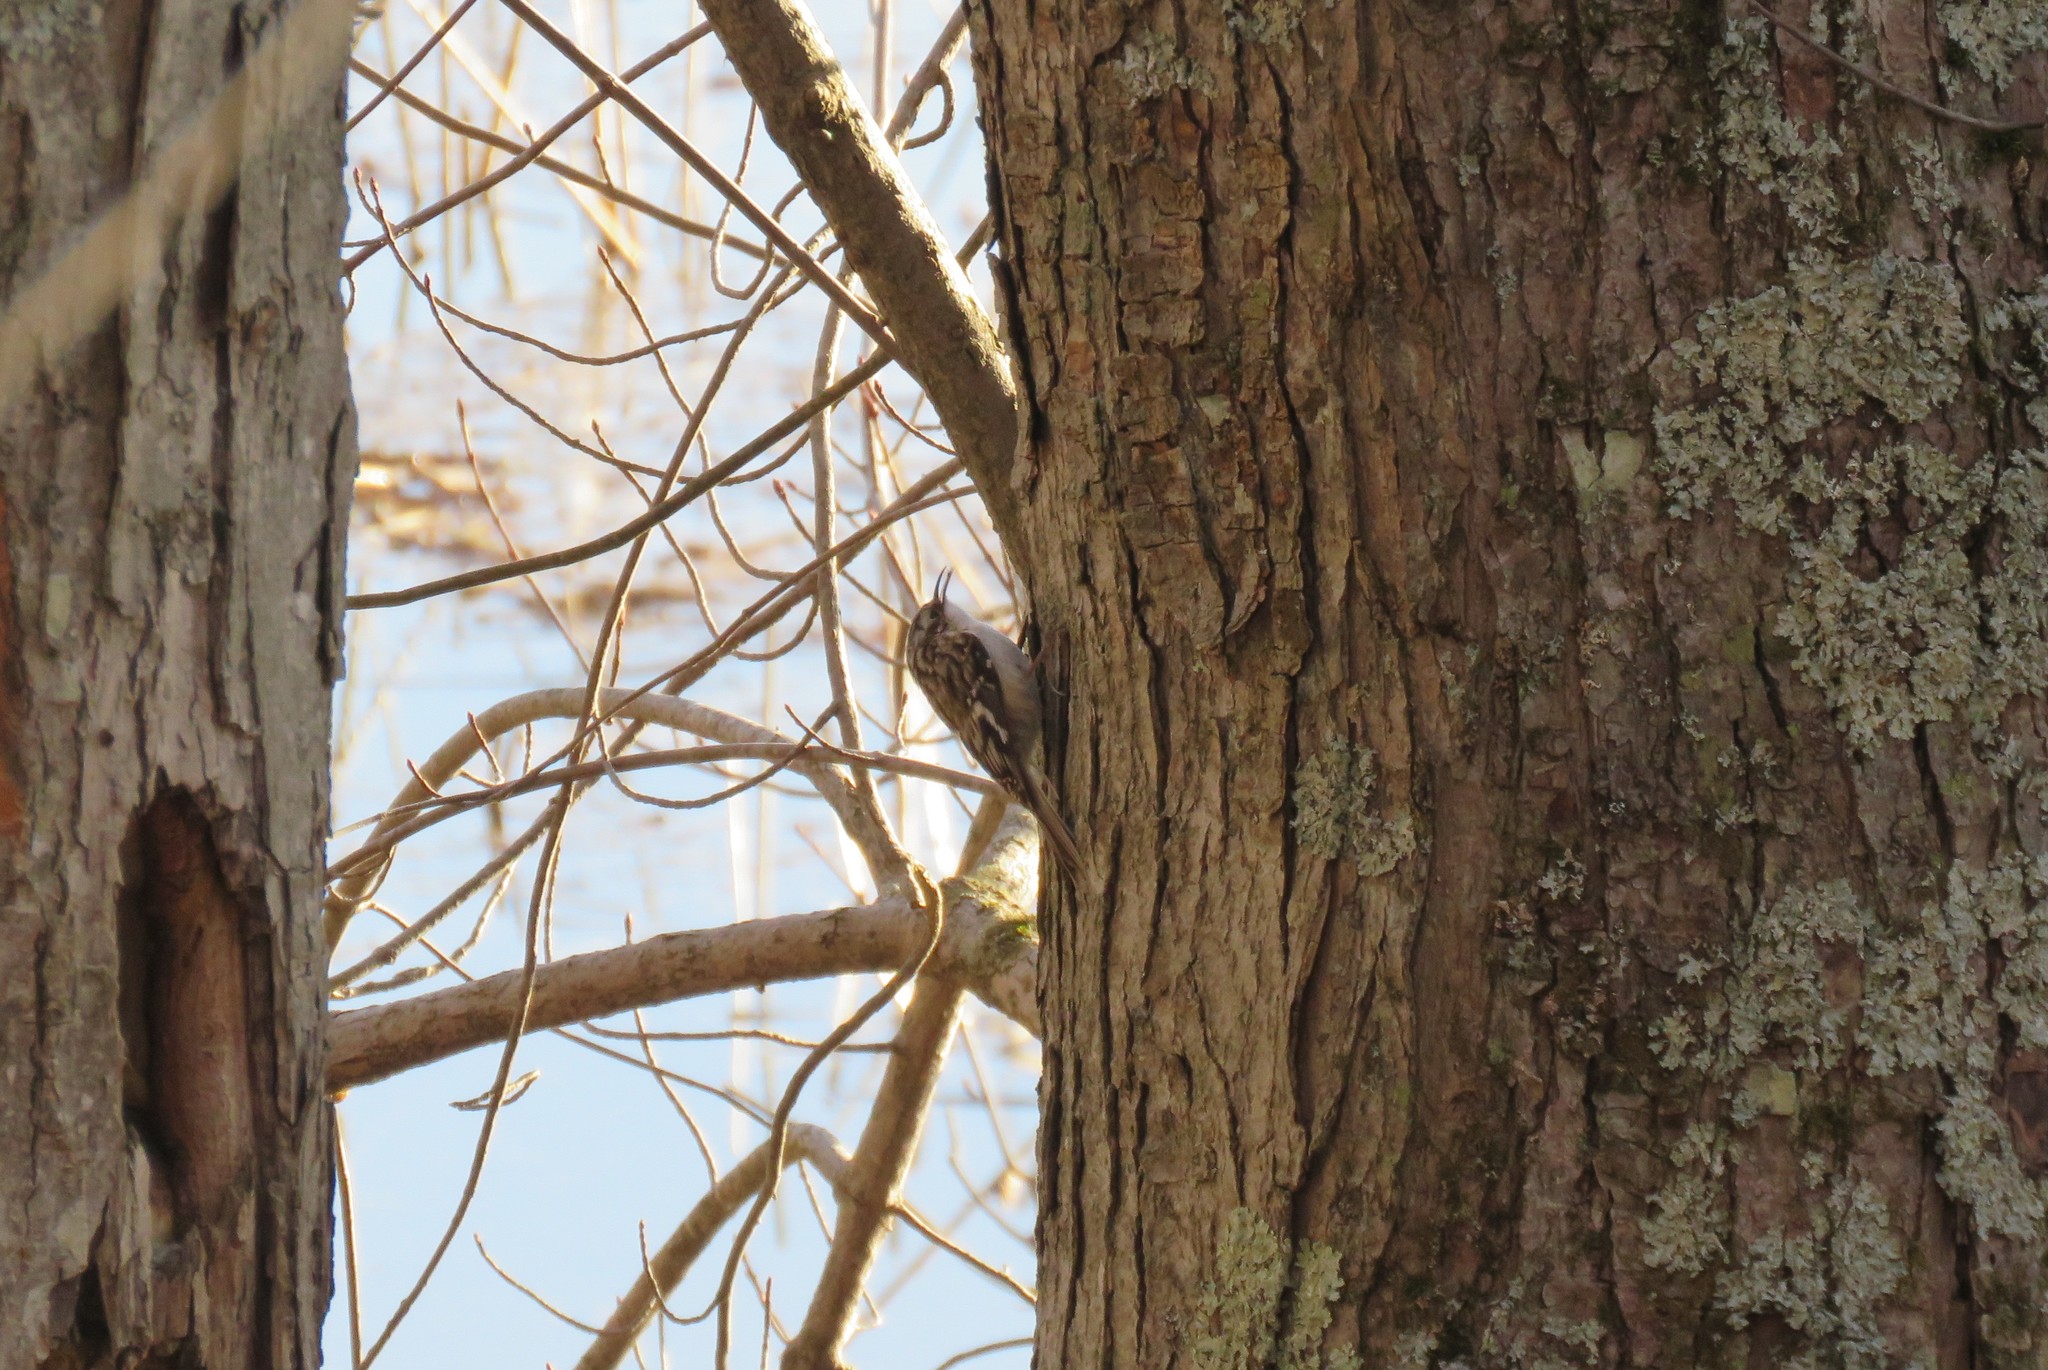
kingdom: Animalia
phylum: Chordata
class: Aves
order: Passeriformes
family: Certhiidae
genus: Certhia
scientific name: Certhia americana
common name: Brown creeper
